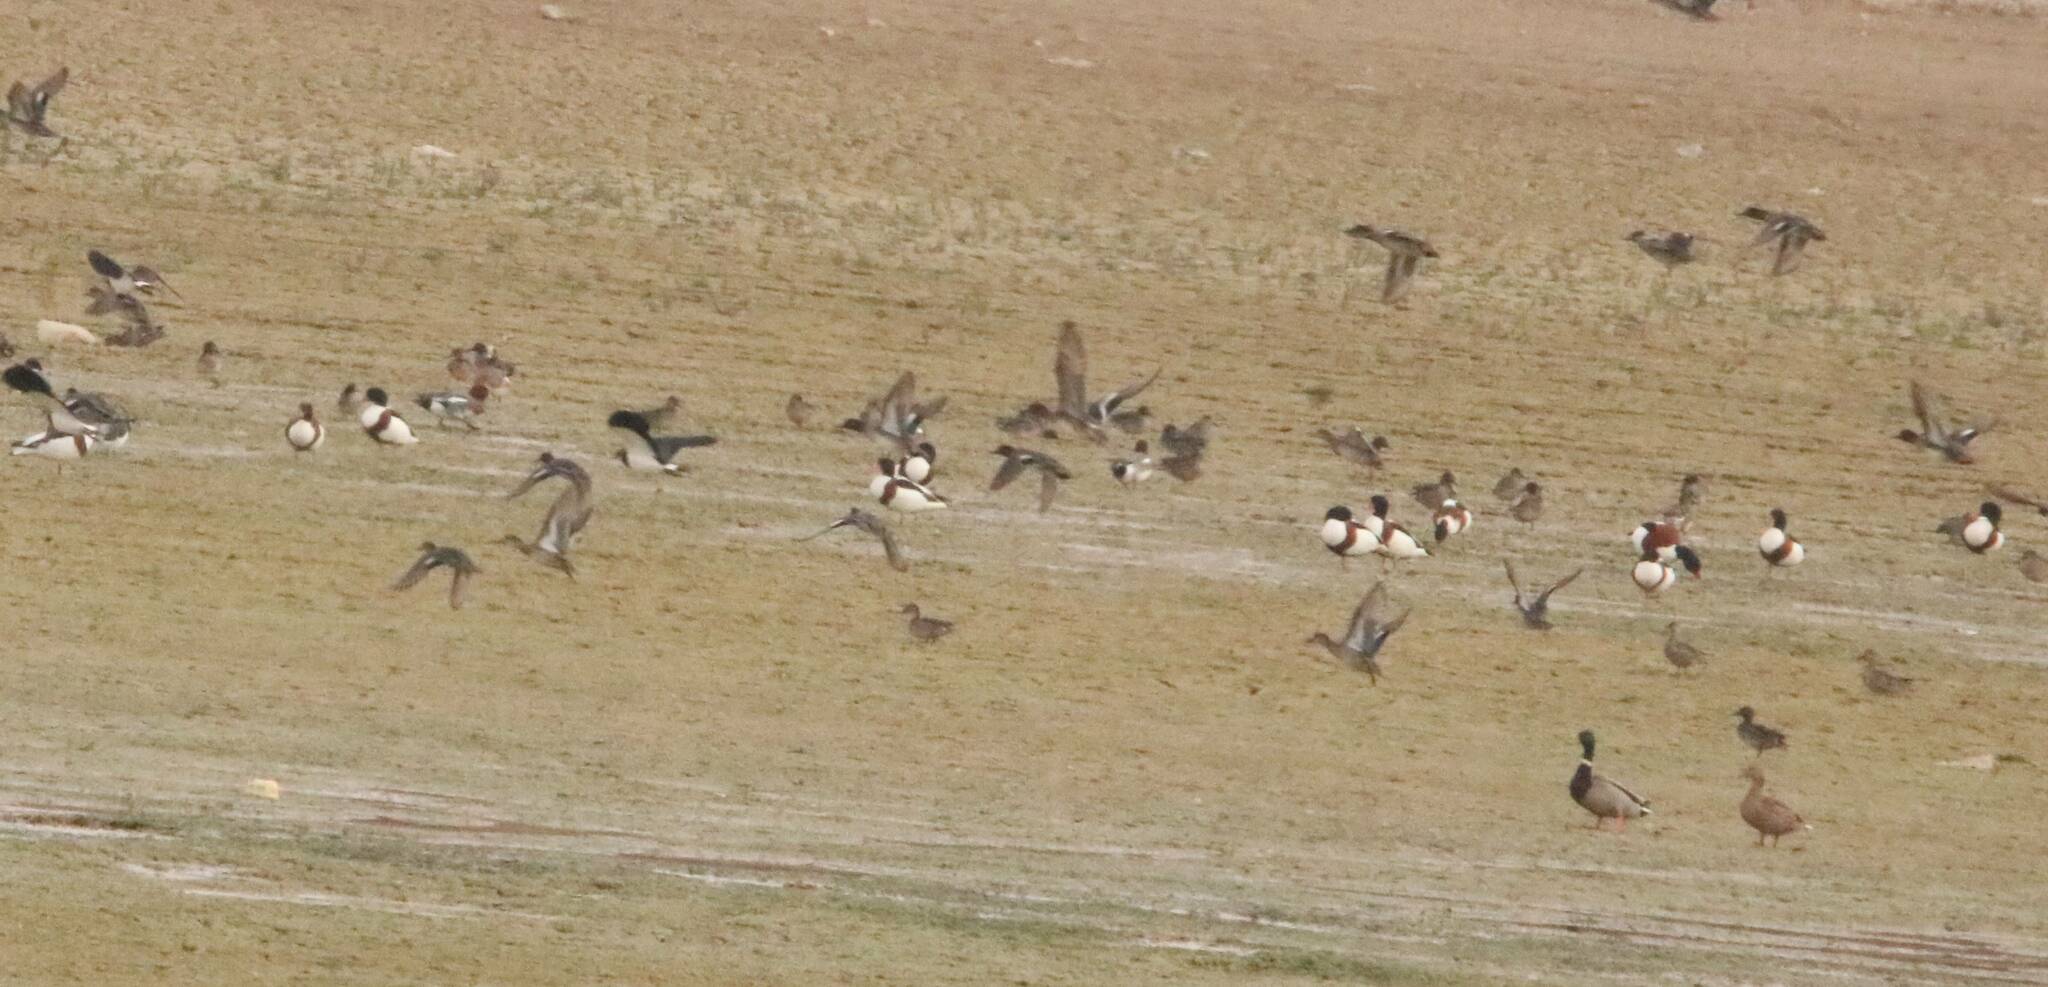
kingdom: Animalia
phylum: Chordata
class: Aves
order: Anseriformes
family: Anatidae
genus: Tadorna
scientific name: Tadorna tadorna
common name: Common shelduck
